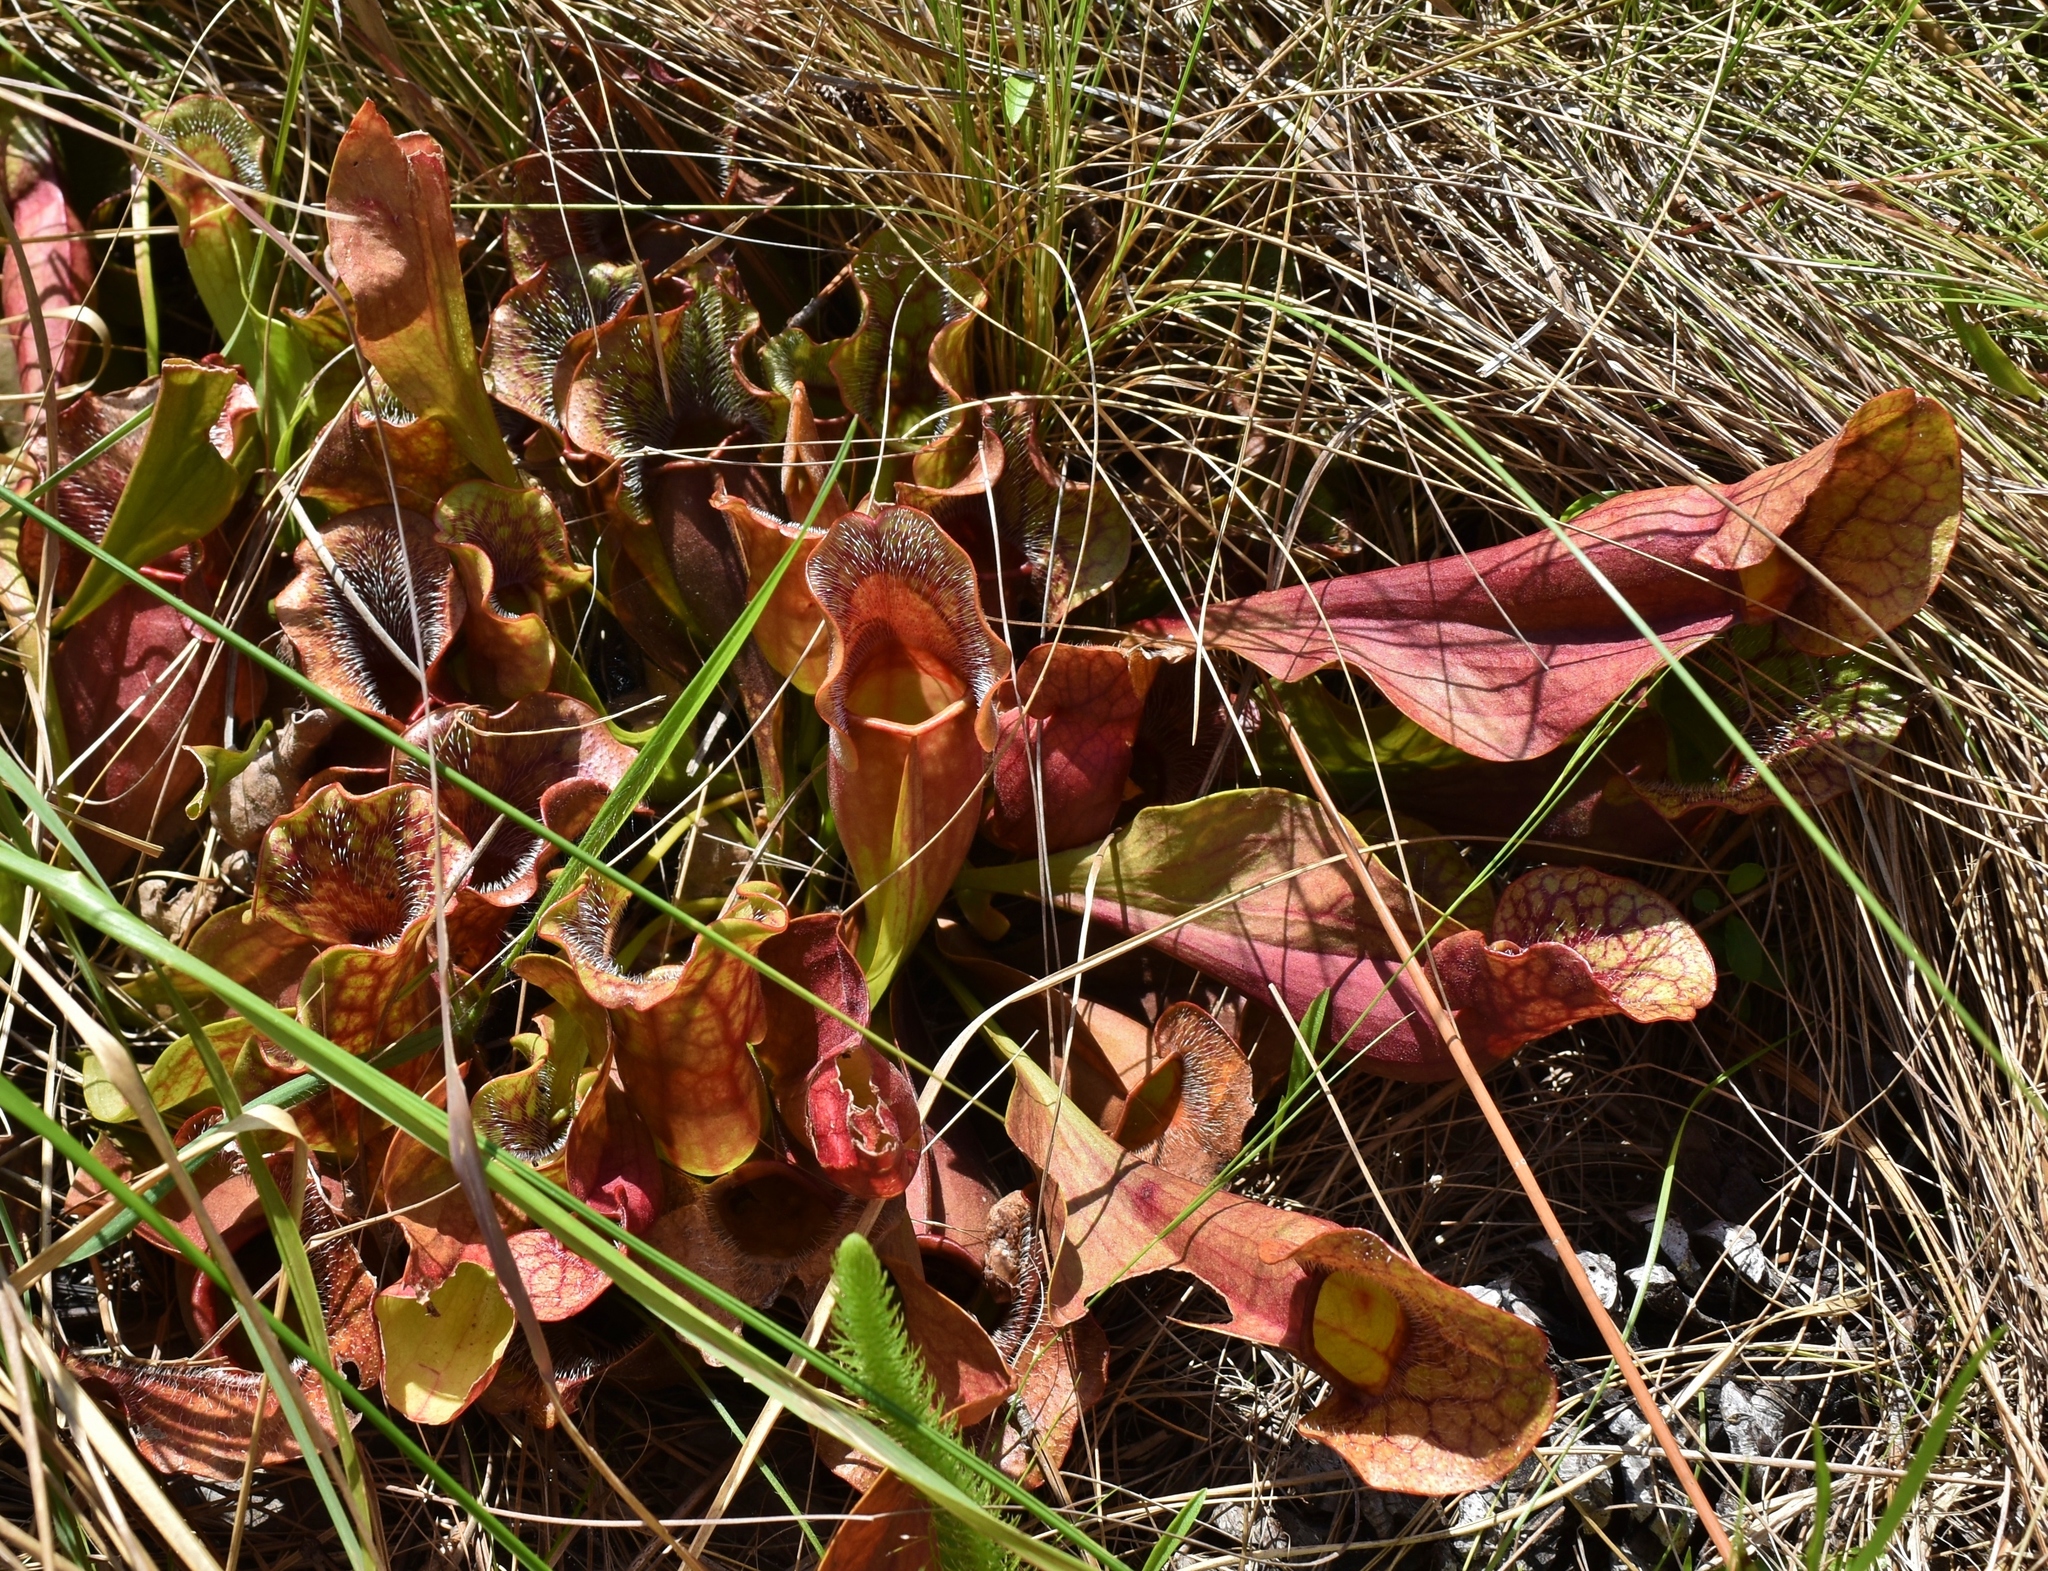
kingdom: Plantae
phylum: Tracheophyta
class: Magnoliopsida
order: Ericales
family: Sarraceniaceae
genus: Sarracenia
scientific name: Sarracenia purpurea
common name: Pitcherplant
